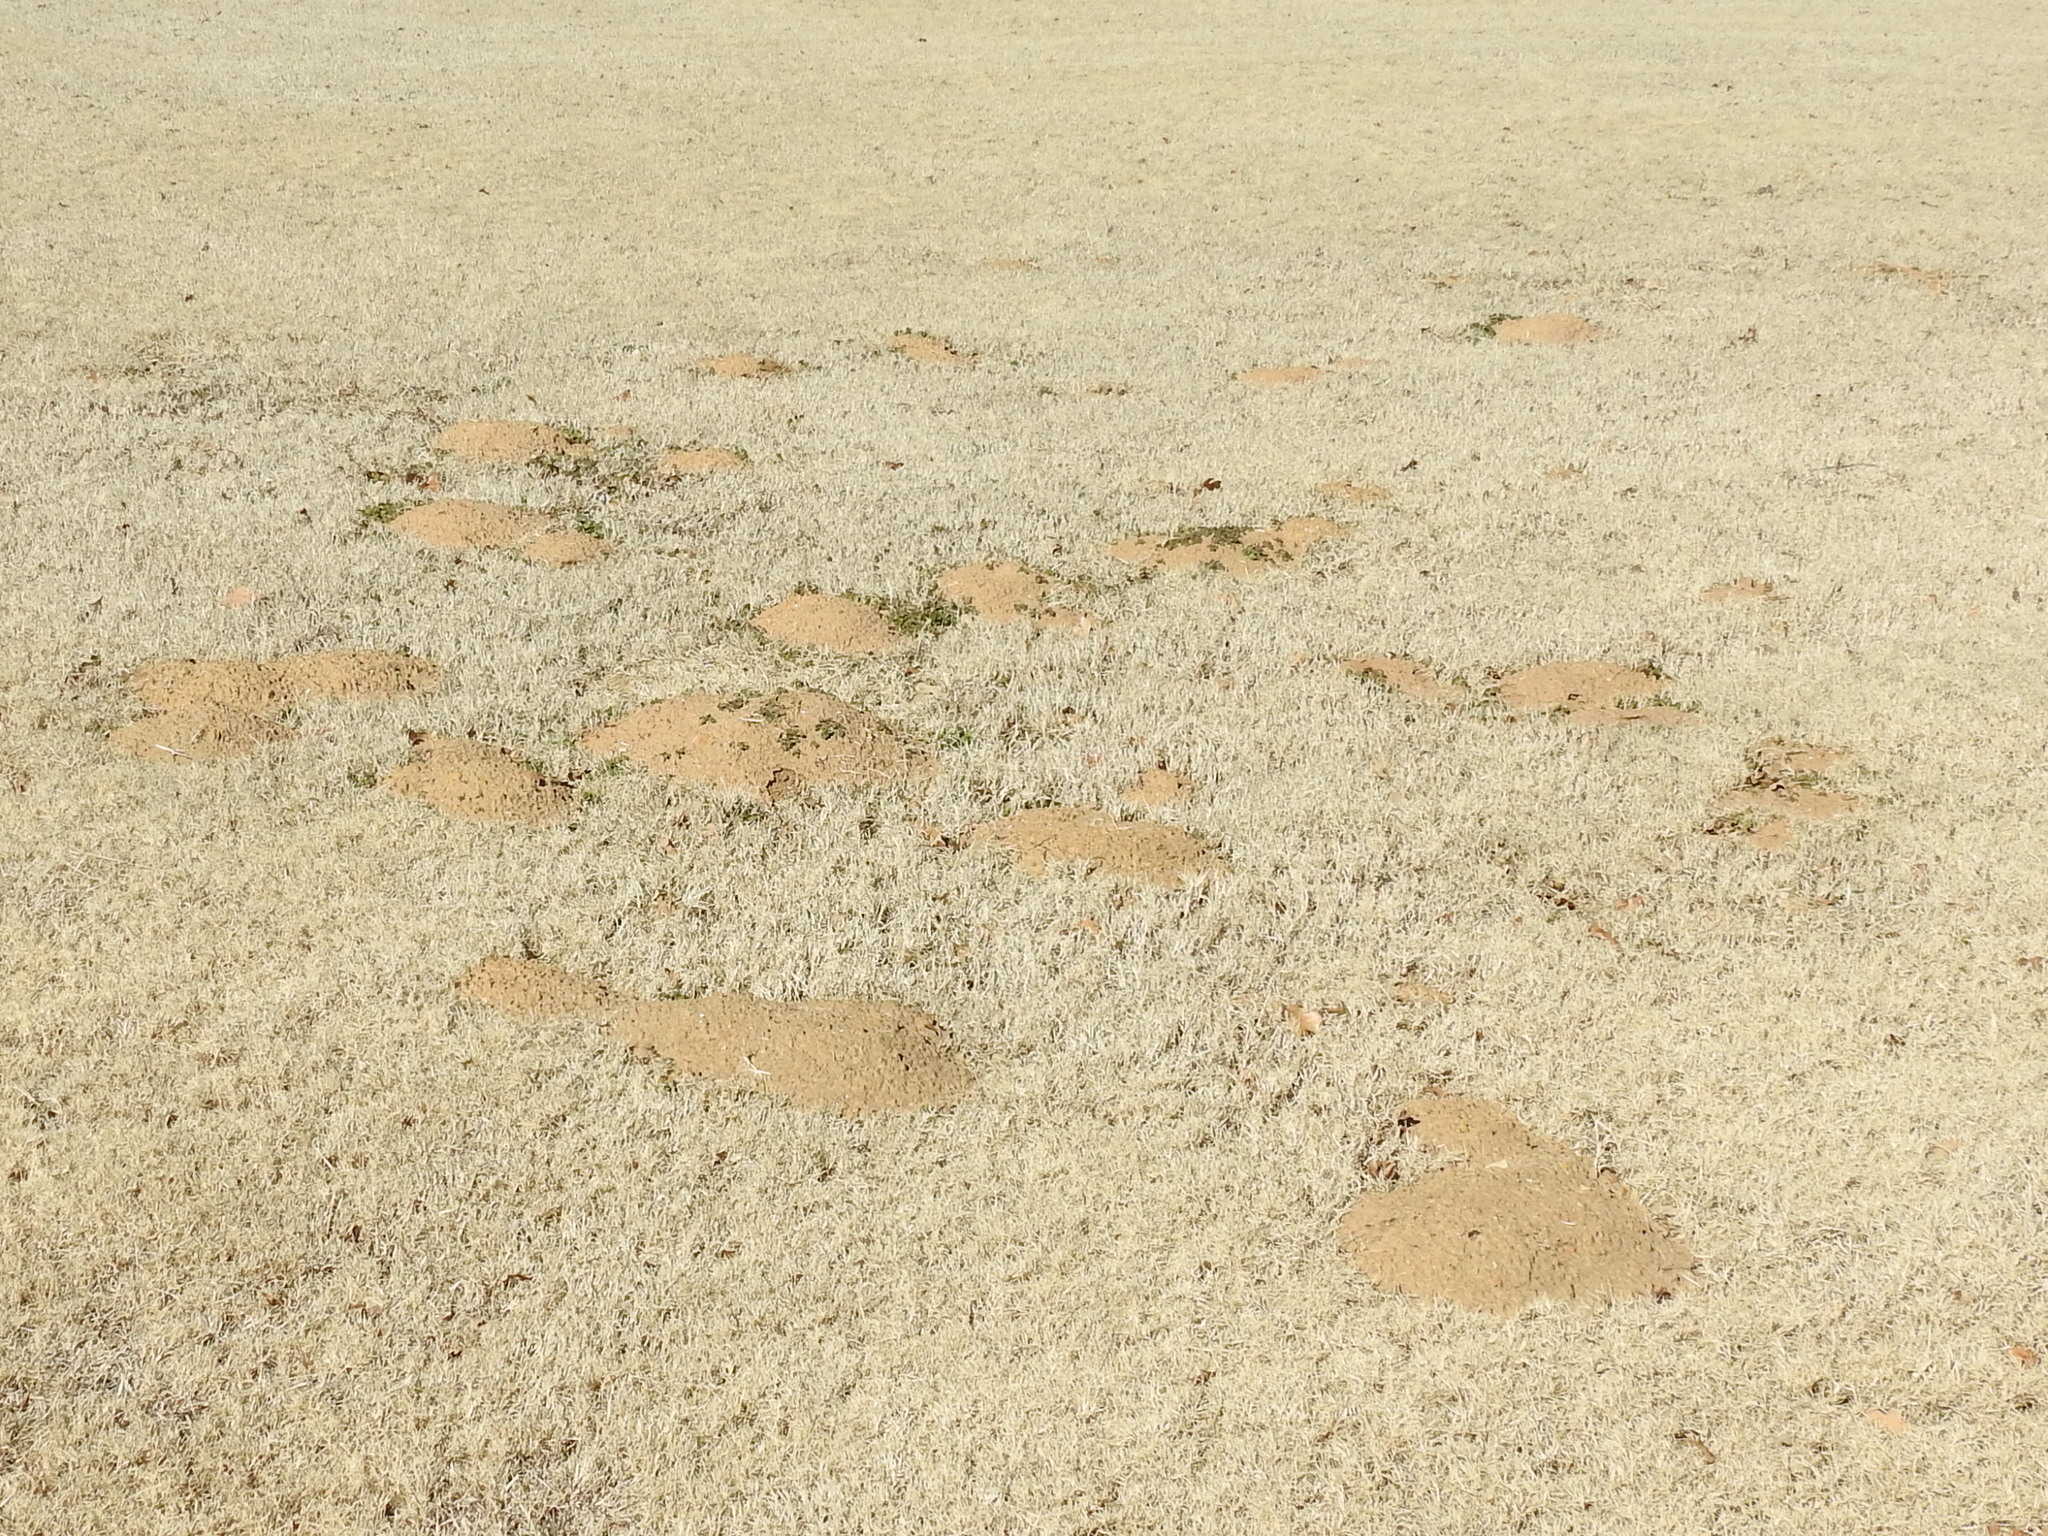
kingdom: Animalia
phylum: Chordata
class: Mammalia
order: Rodentia
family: Geomyidae
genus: Geomys
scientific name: Geomys bursarius
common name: Plains pocket gopher
